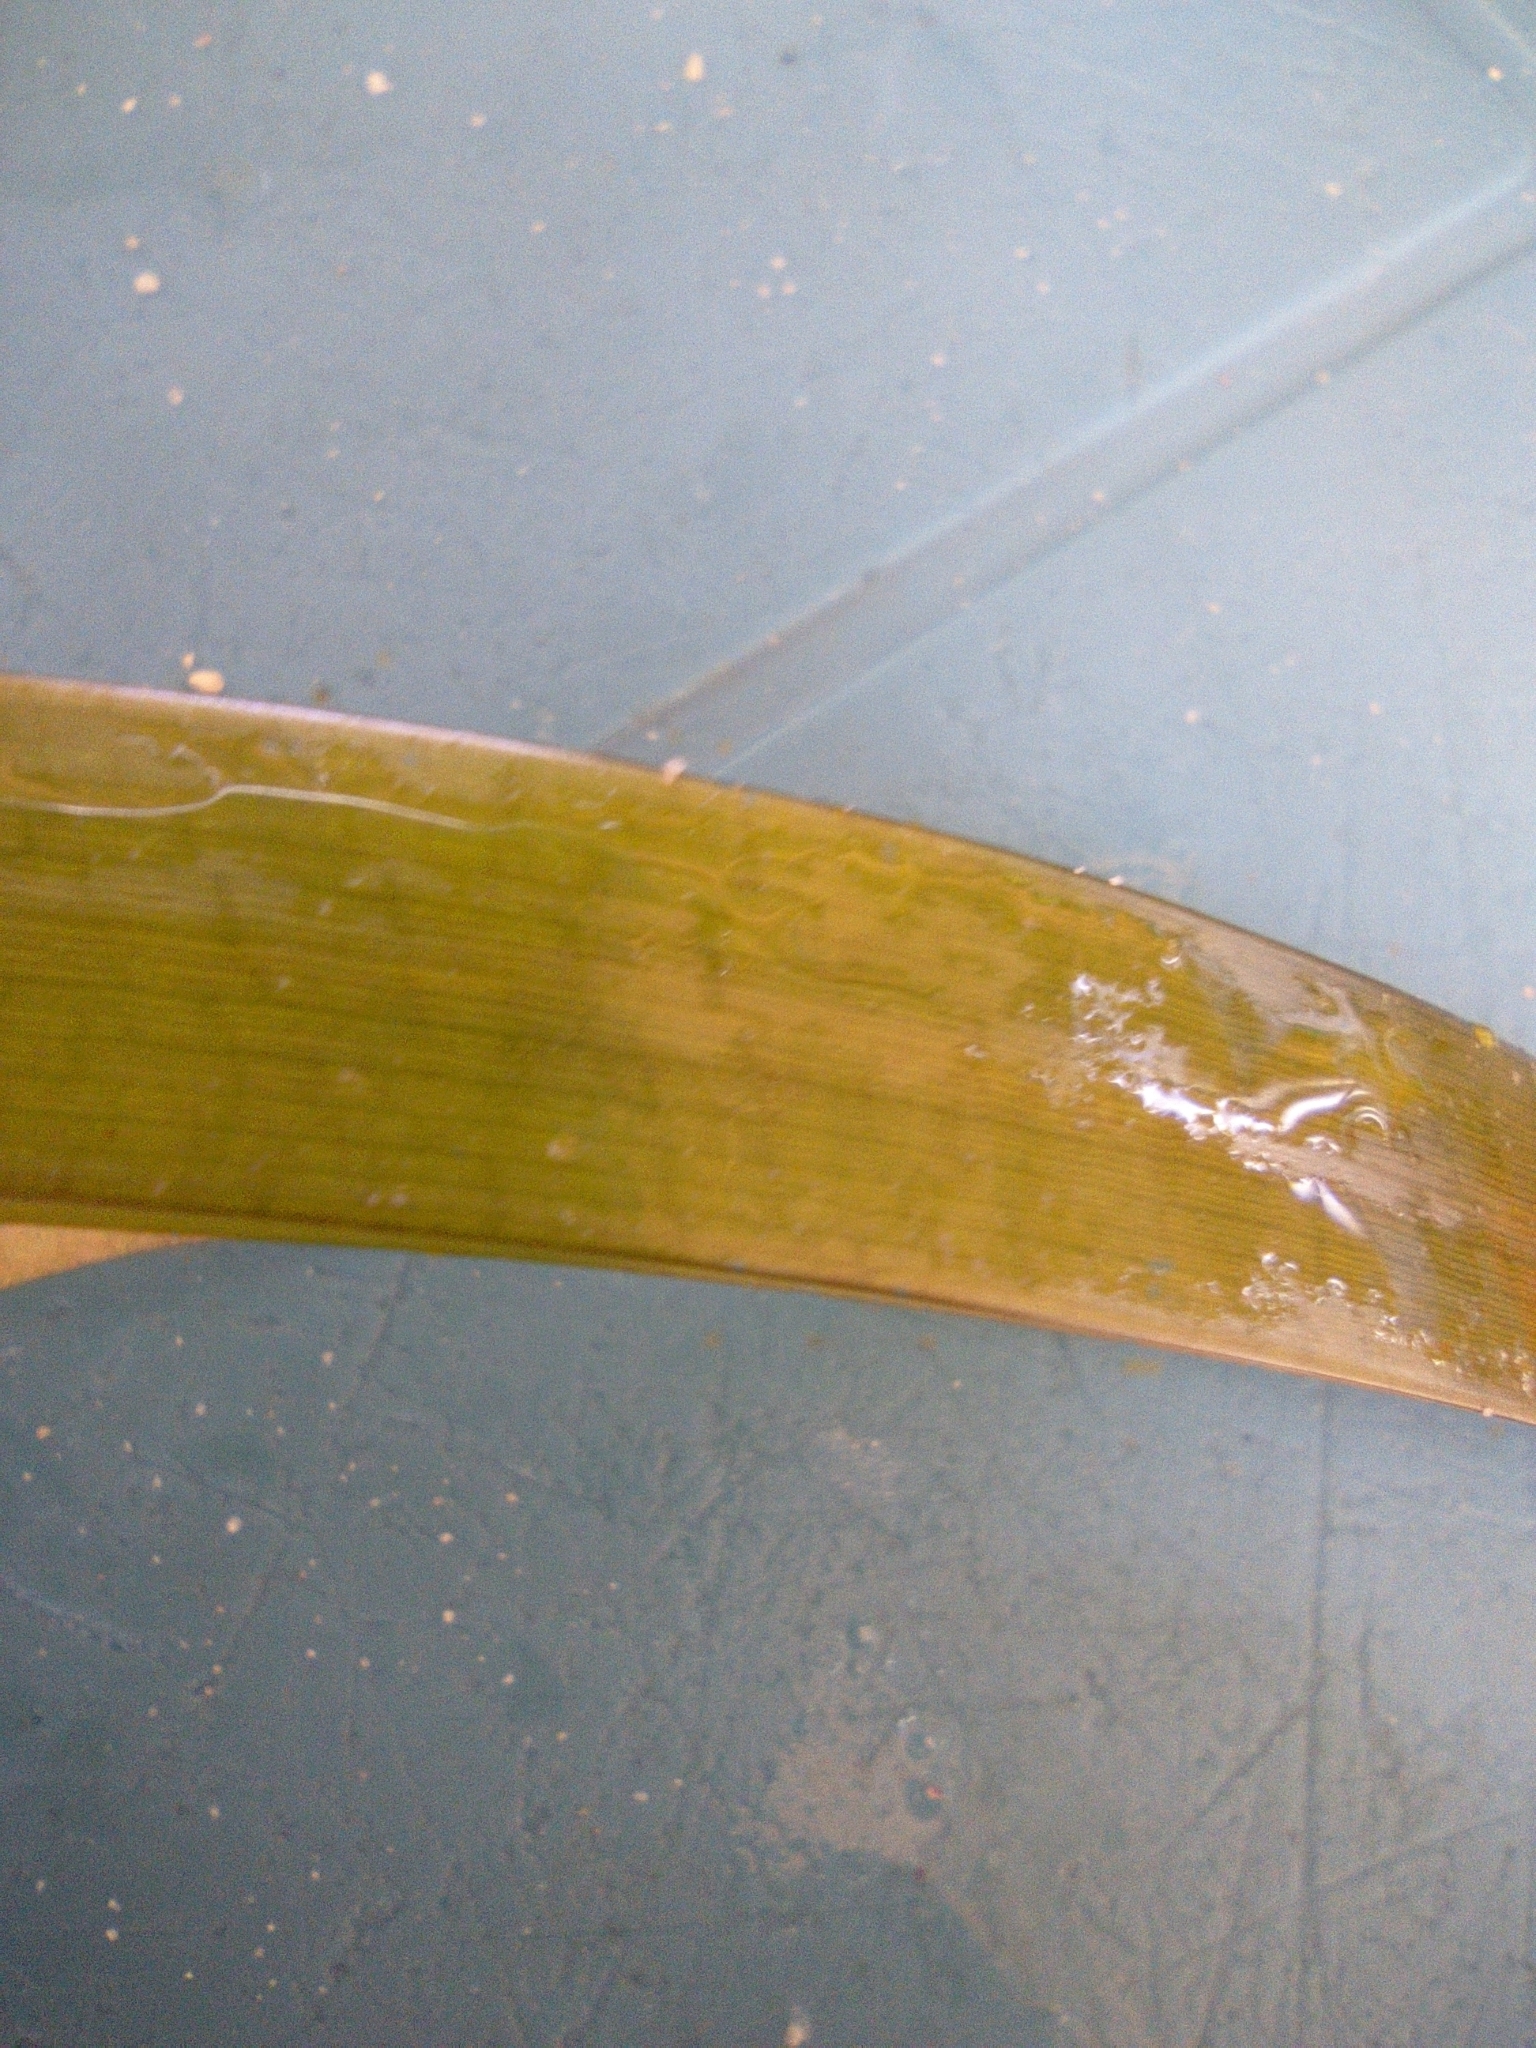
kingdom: Plantae
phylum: Tracheophyta
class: Liliopsida
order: Alismatales
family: Hydrocharitaceae
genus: Thalassia
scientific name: Thalassia testudinum
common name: Species code: tt
